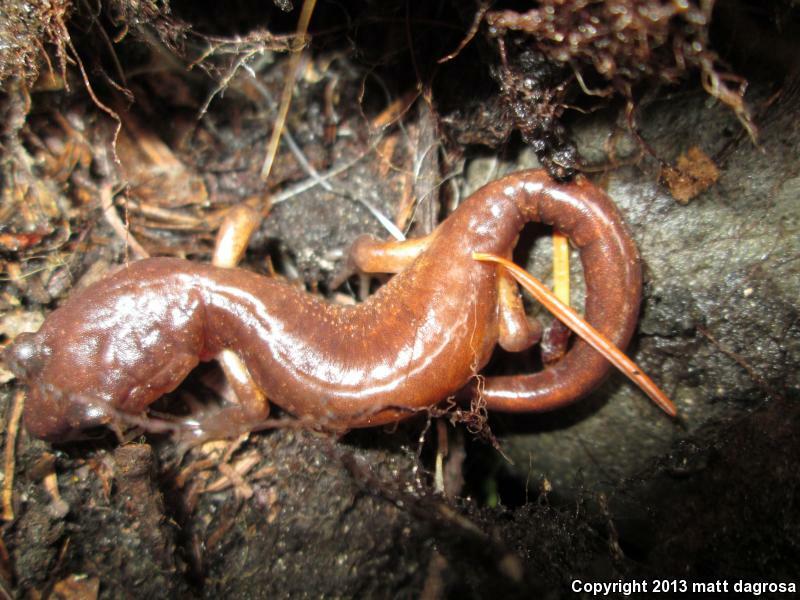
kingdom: Animalia
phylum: Chordata
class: Amphibia
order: Caudata
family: Plethodontidae
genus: Ensatina
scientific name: Ensatina eschscholtzii
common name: Ensatina
